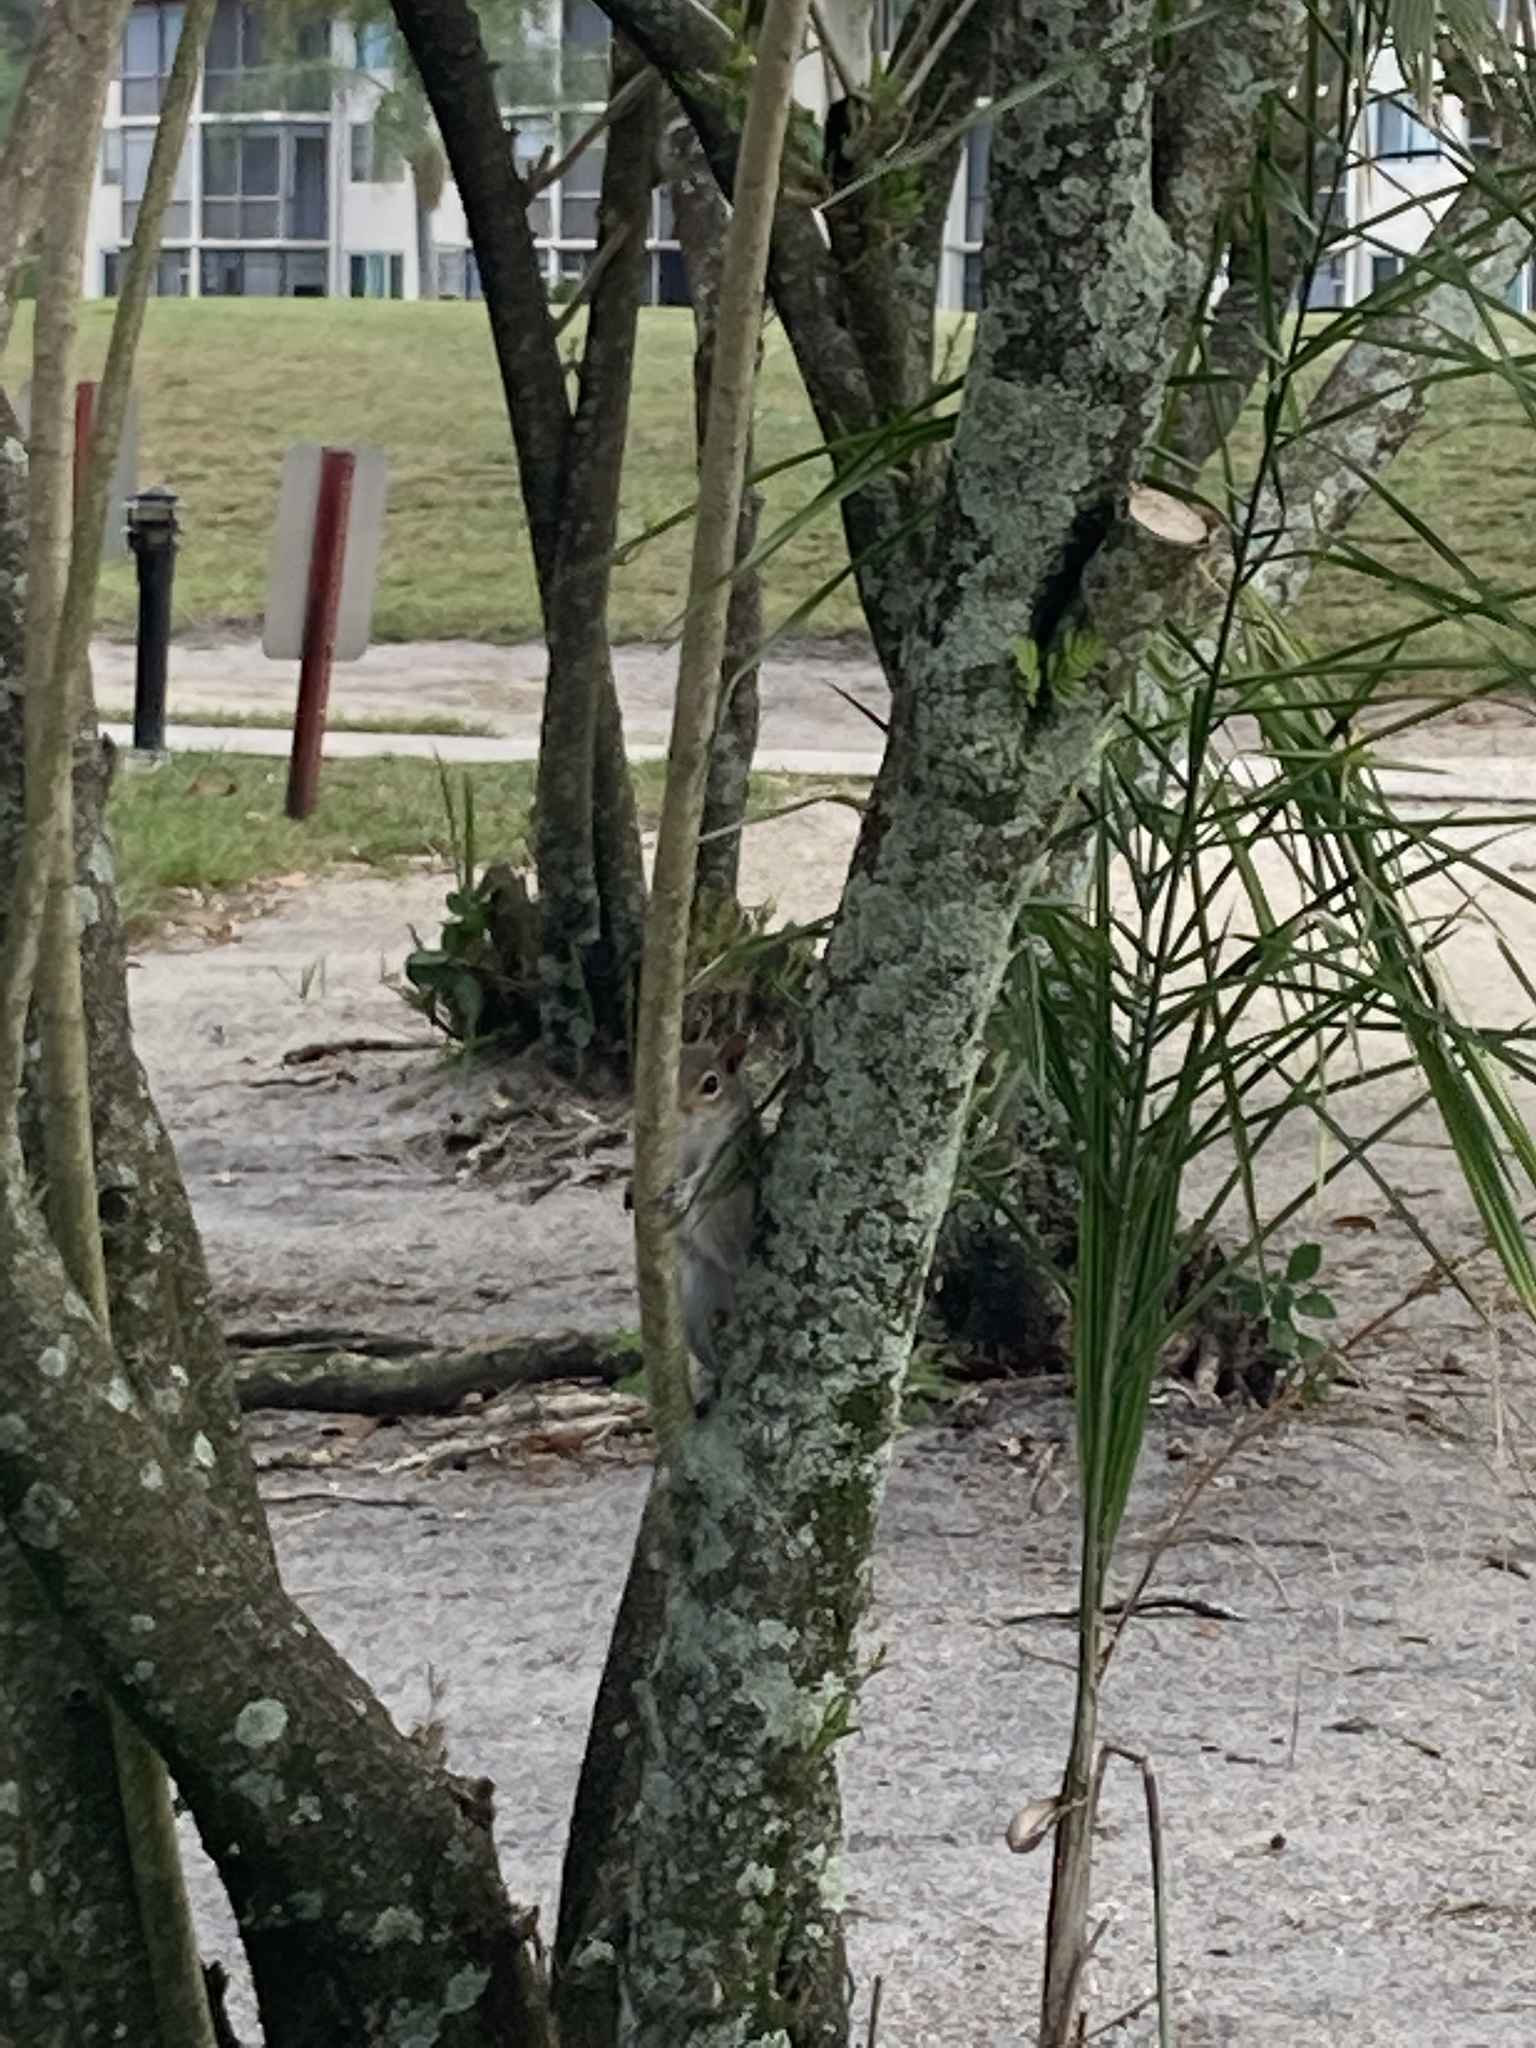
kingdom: Animalia
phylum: Chordata
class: Mammalia
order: Rodentia
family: Sciuridae
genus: Sciurus
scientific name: Sciurus carolinensis
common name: Eastern gray squirrel
